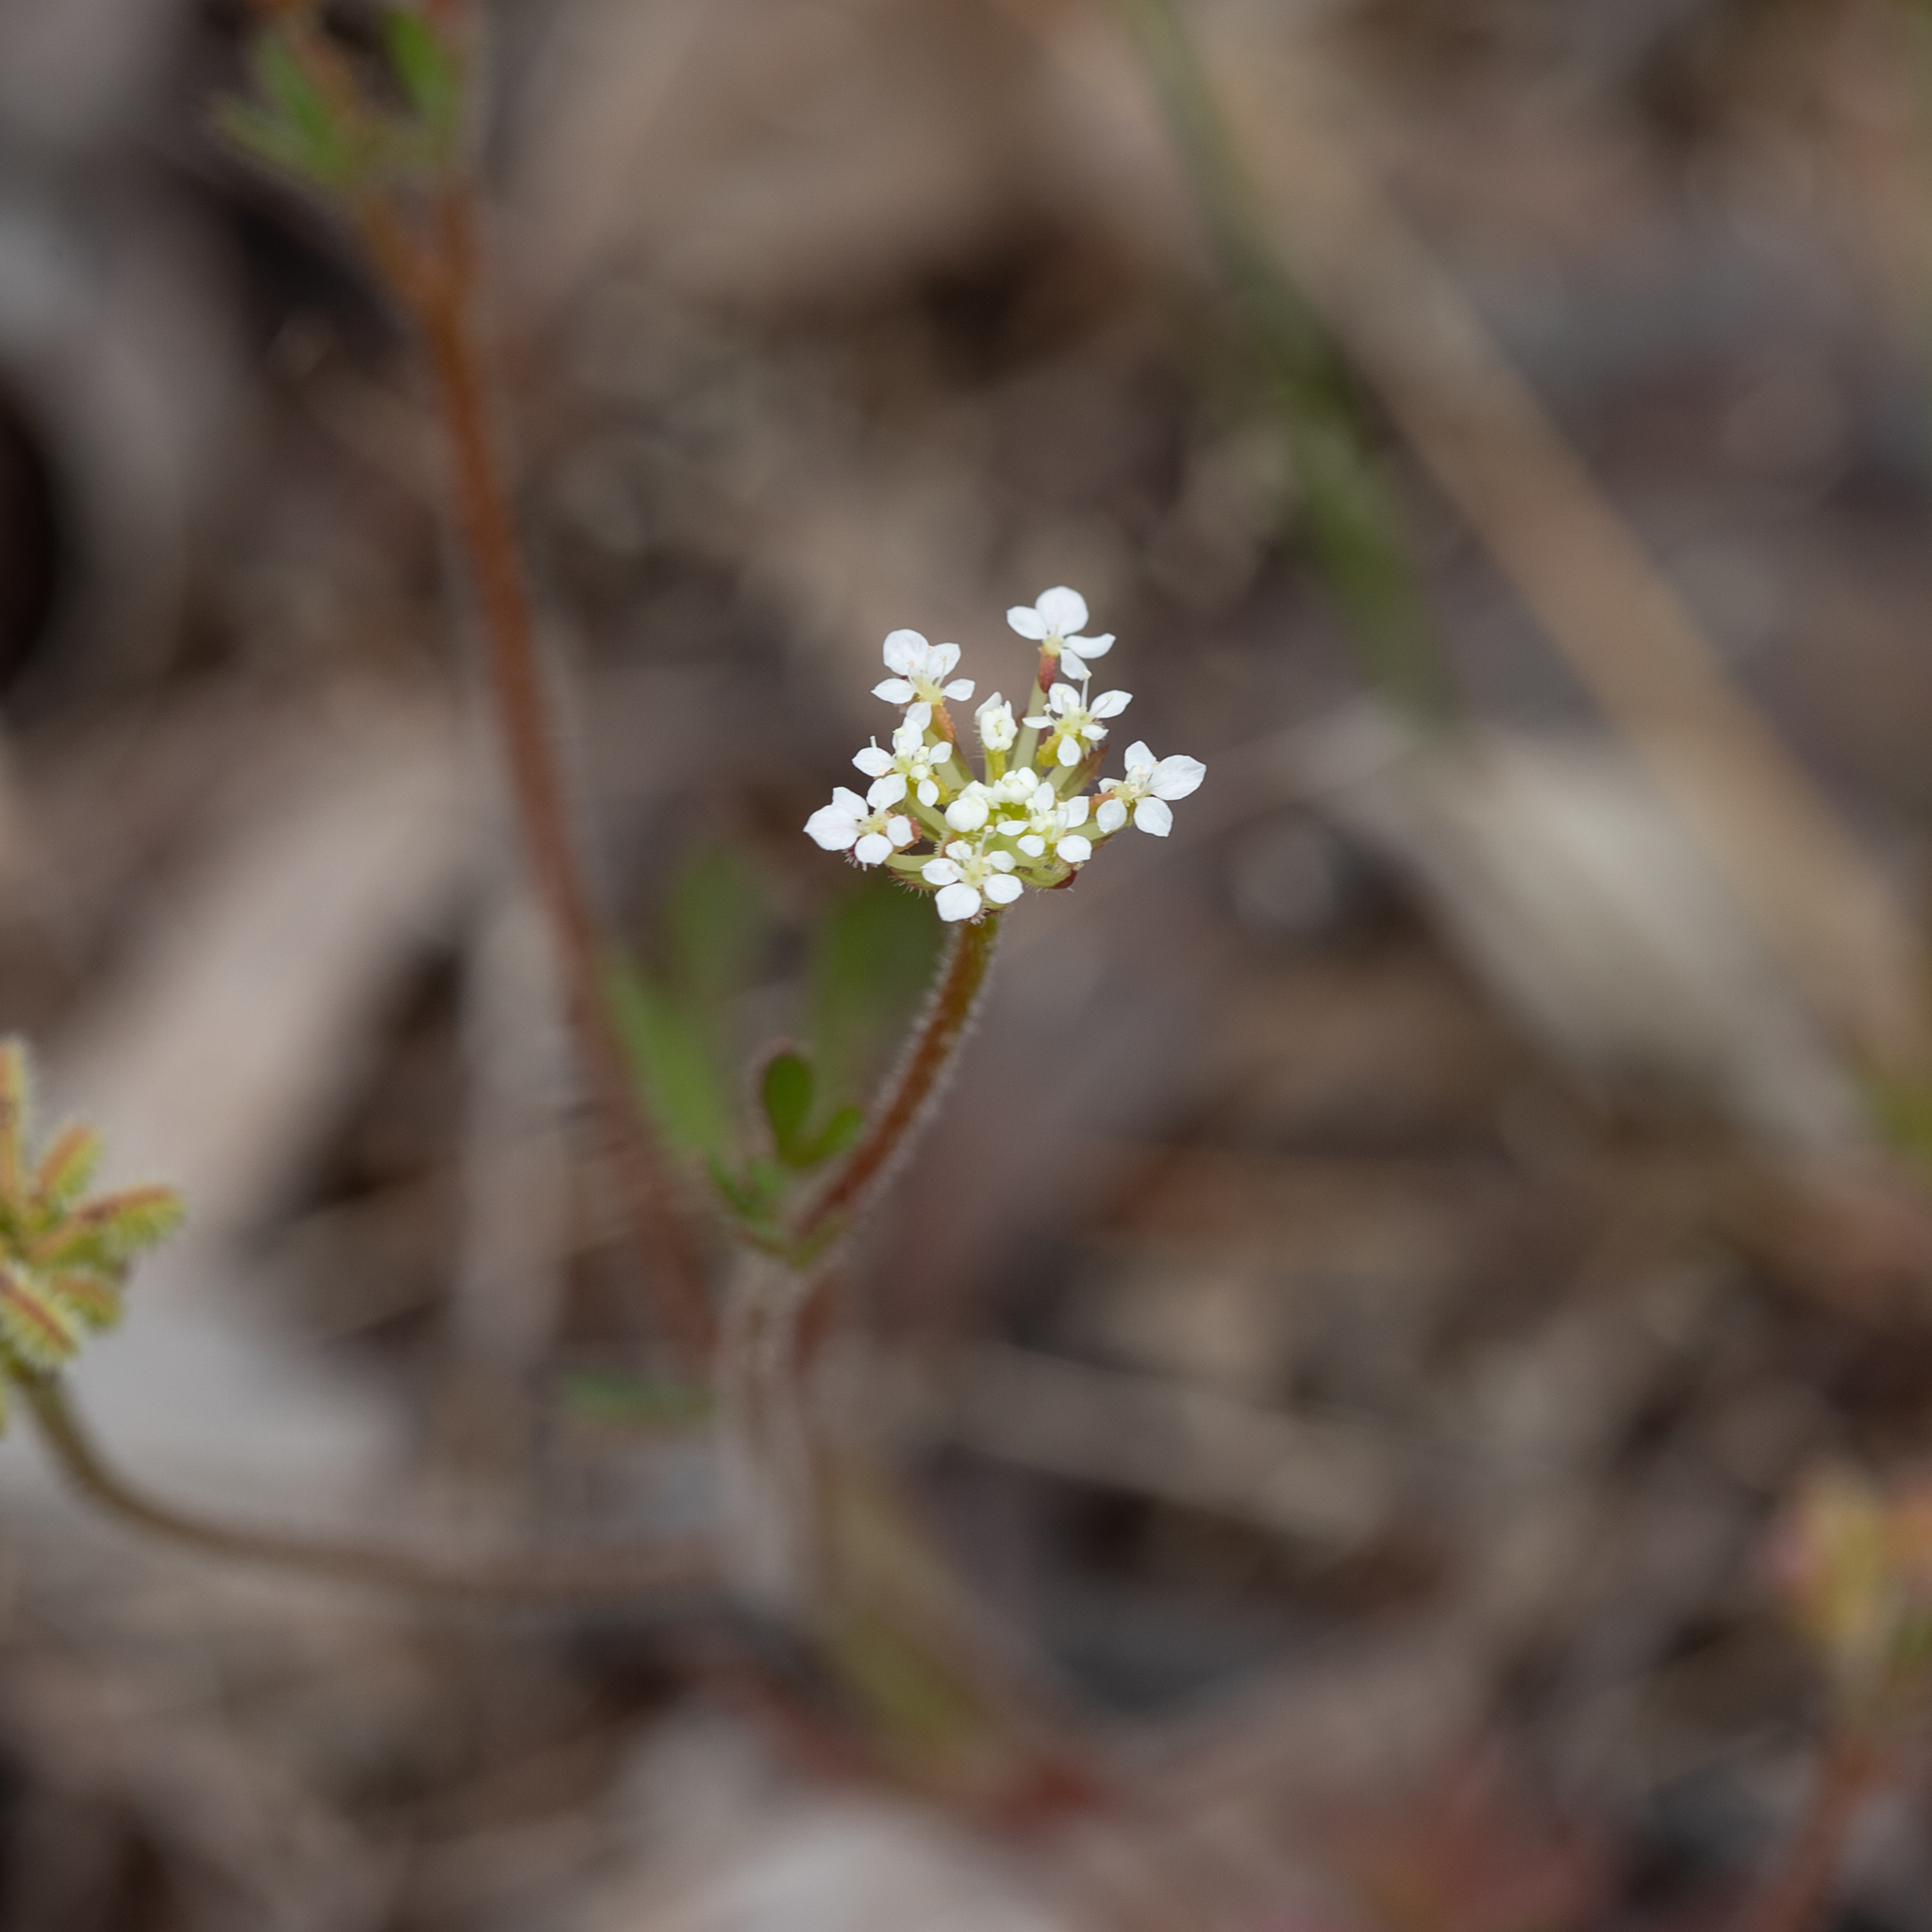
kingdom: Plantae
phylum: Tracheophyta
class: Magnoliopsida
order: Apiales
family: Araliaceae
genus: Trachymene
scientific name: Trachymene pilosa
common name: Dwarf trachymene
